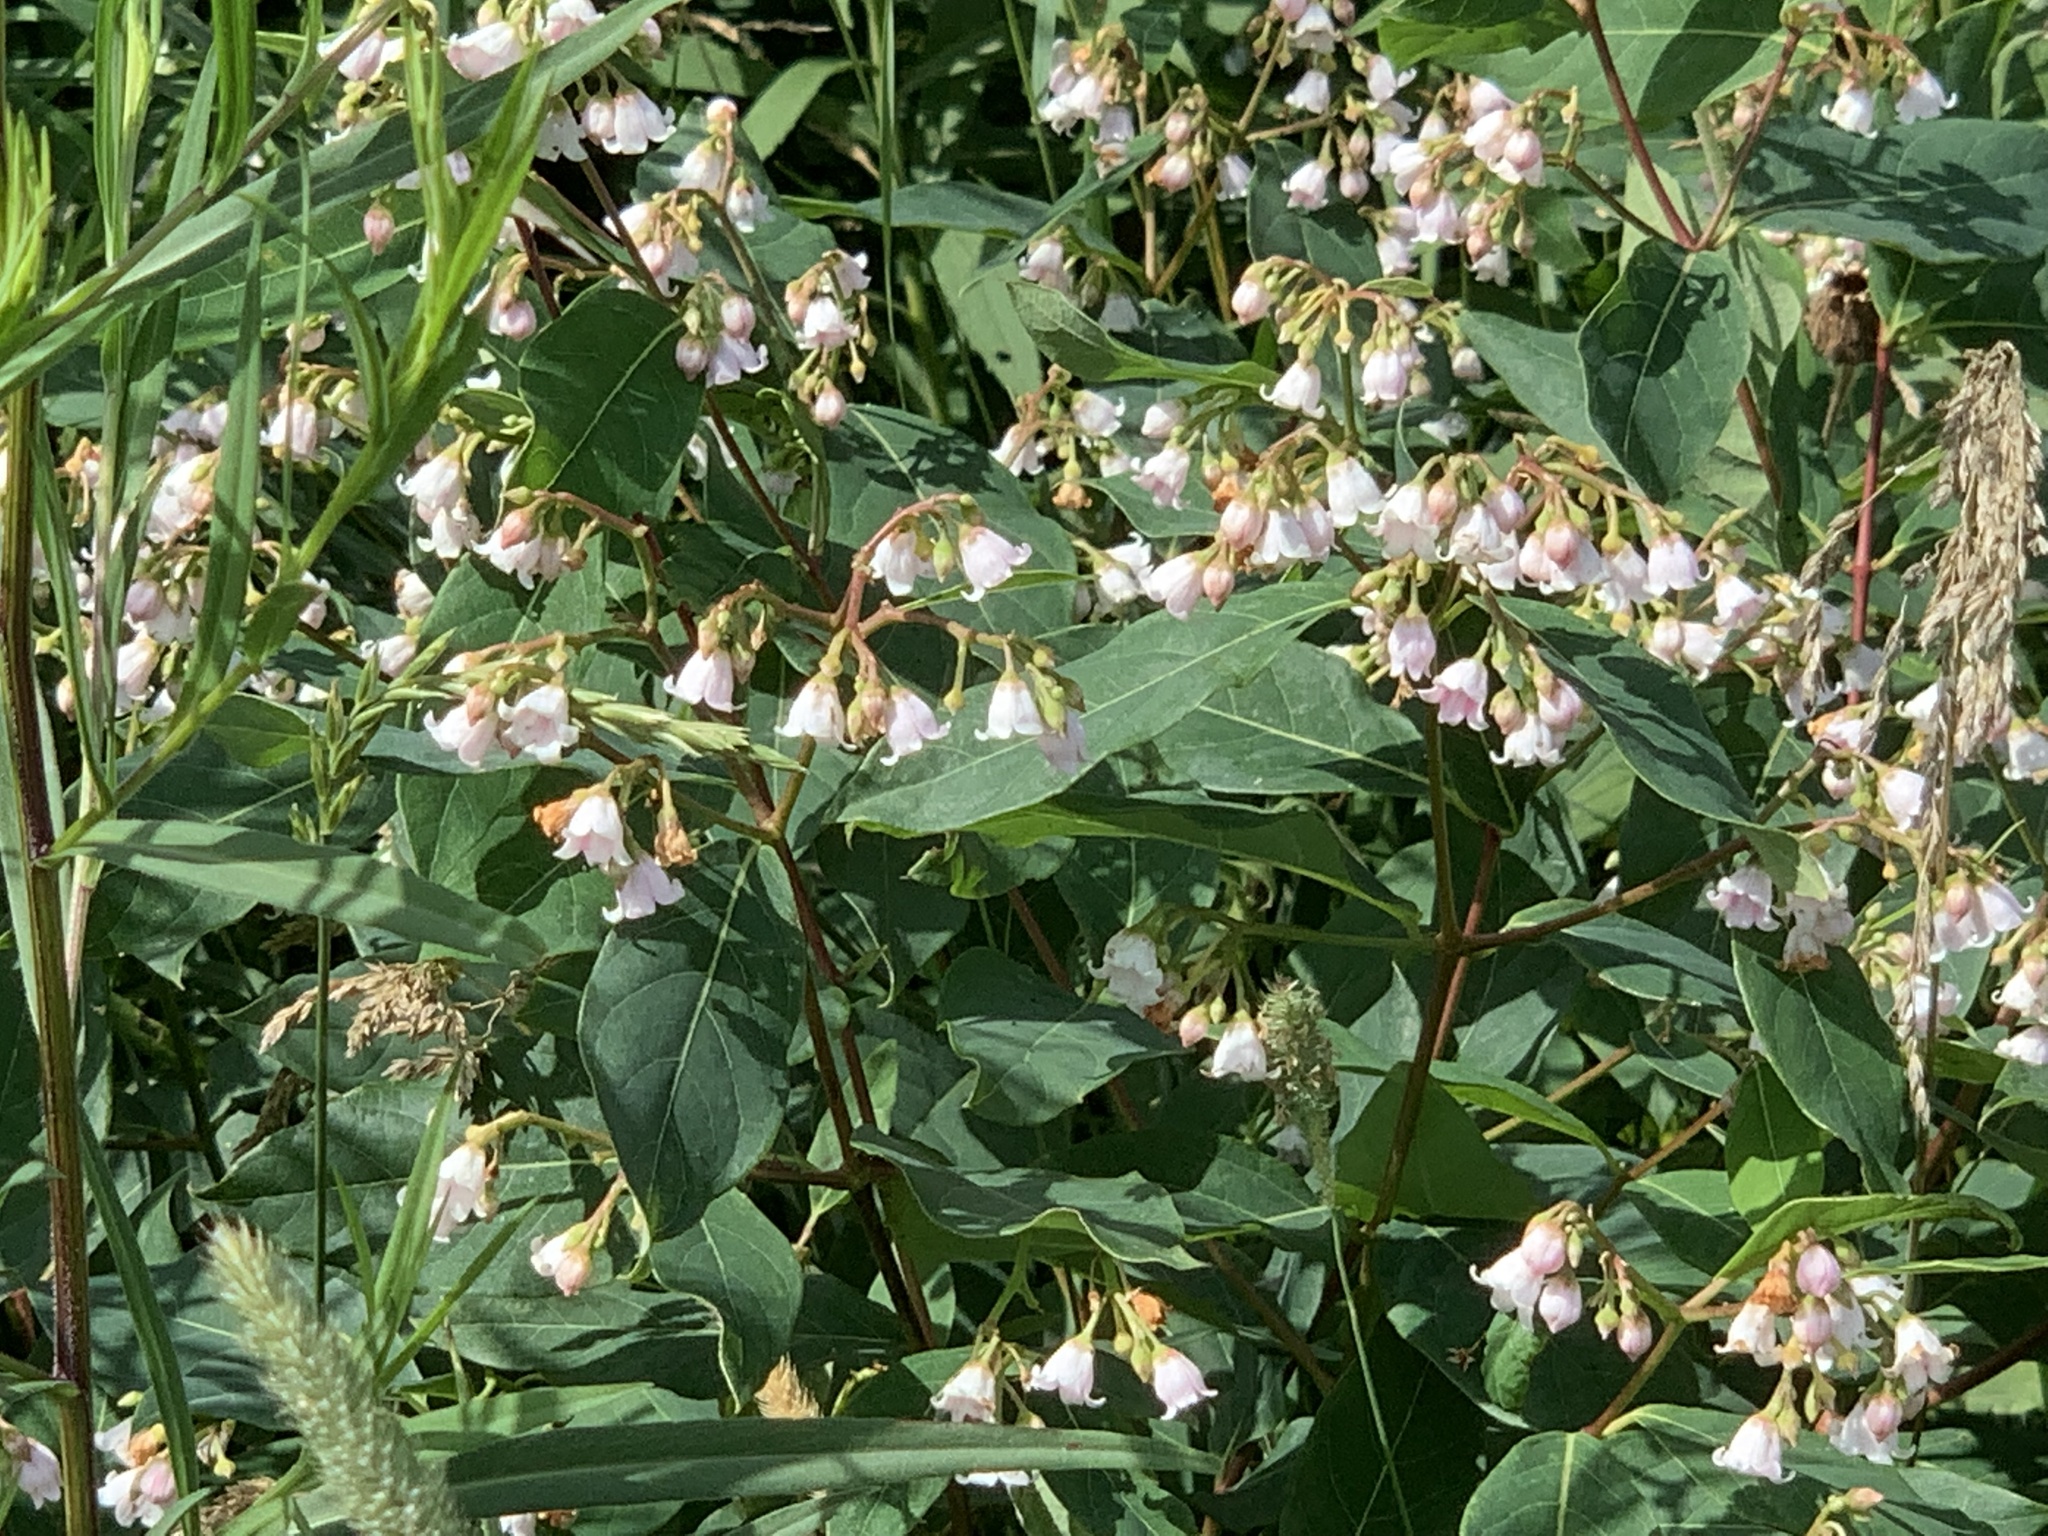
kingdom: Plantae
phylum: Tracheophyta
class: Magnoliopsida
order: Gentianales
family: Apocynaceae
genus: Apocynum
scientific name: Apocynum androsaemifolium
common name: Spreading dogbane
